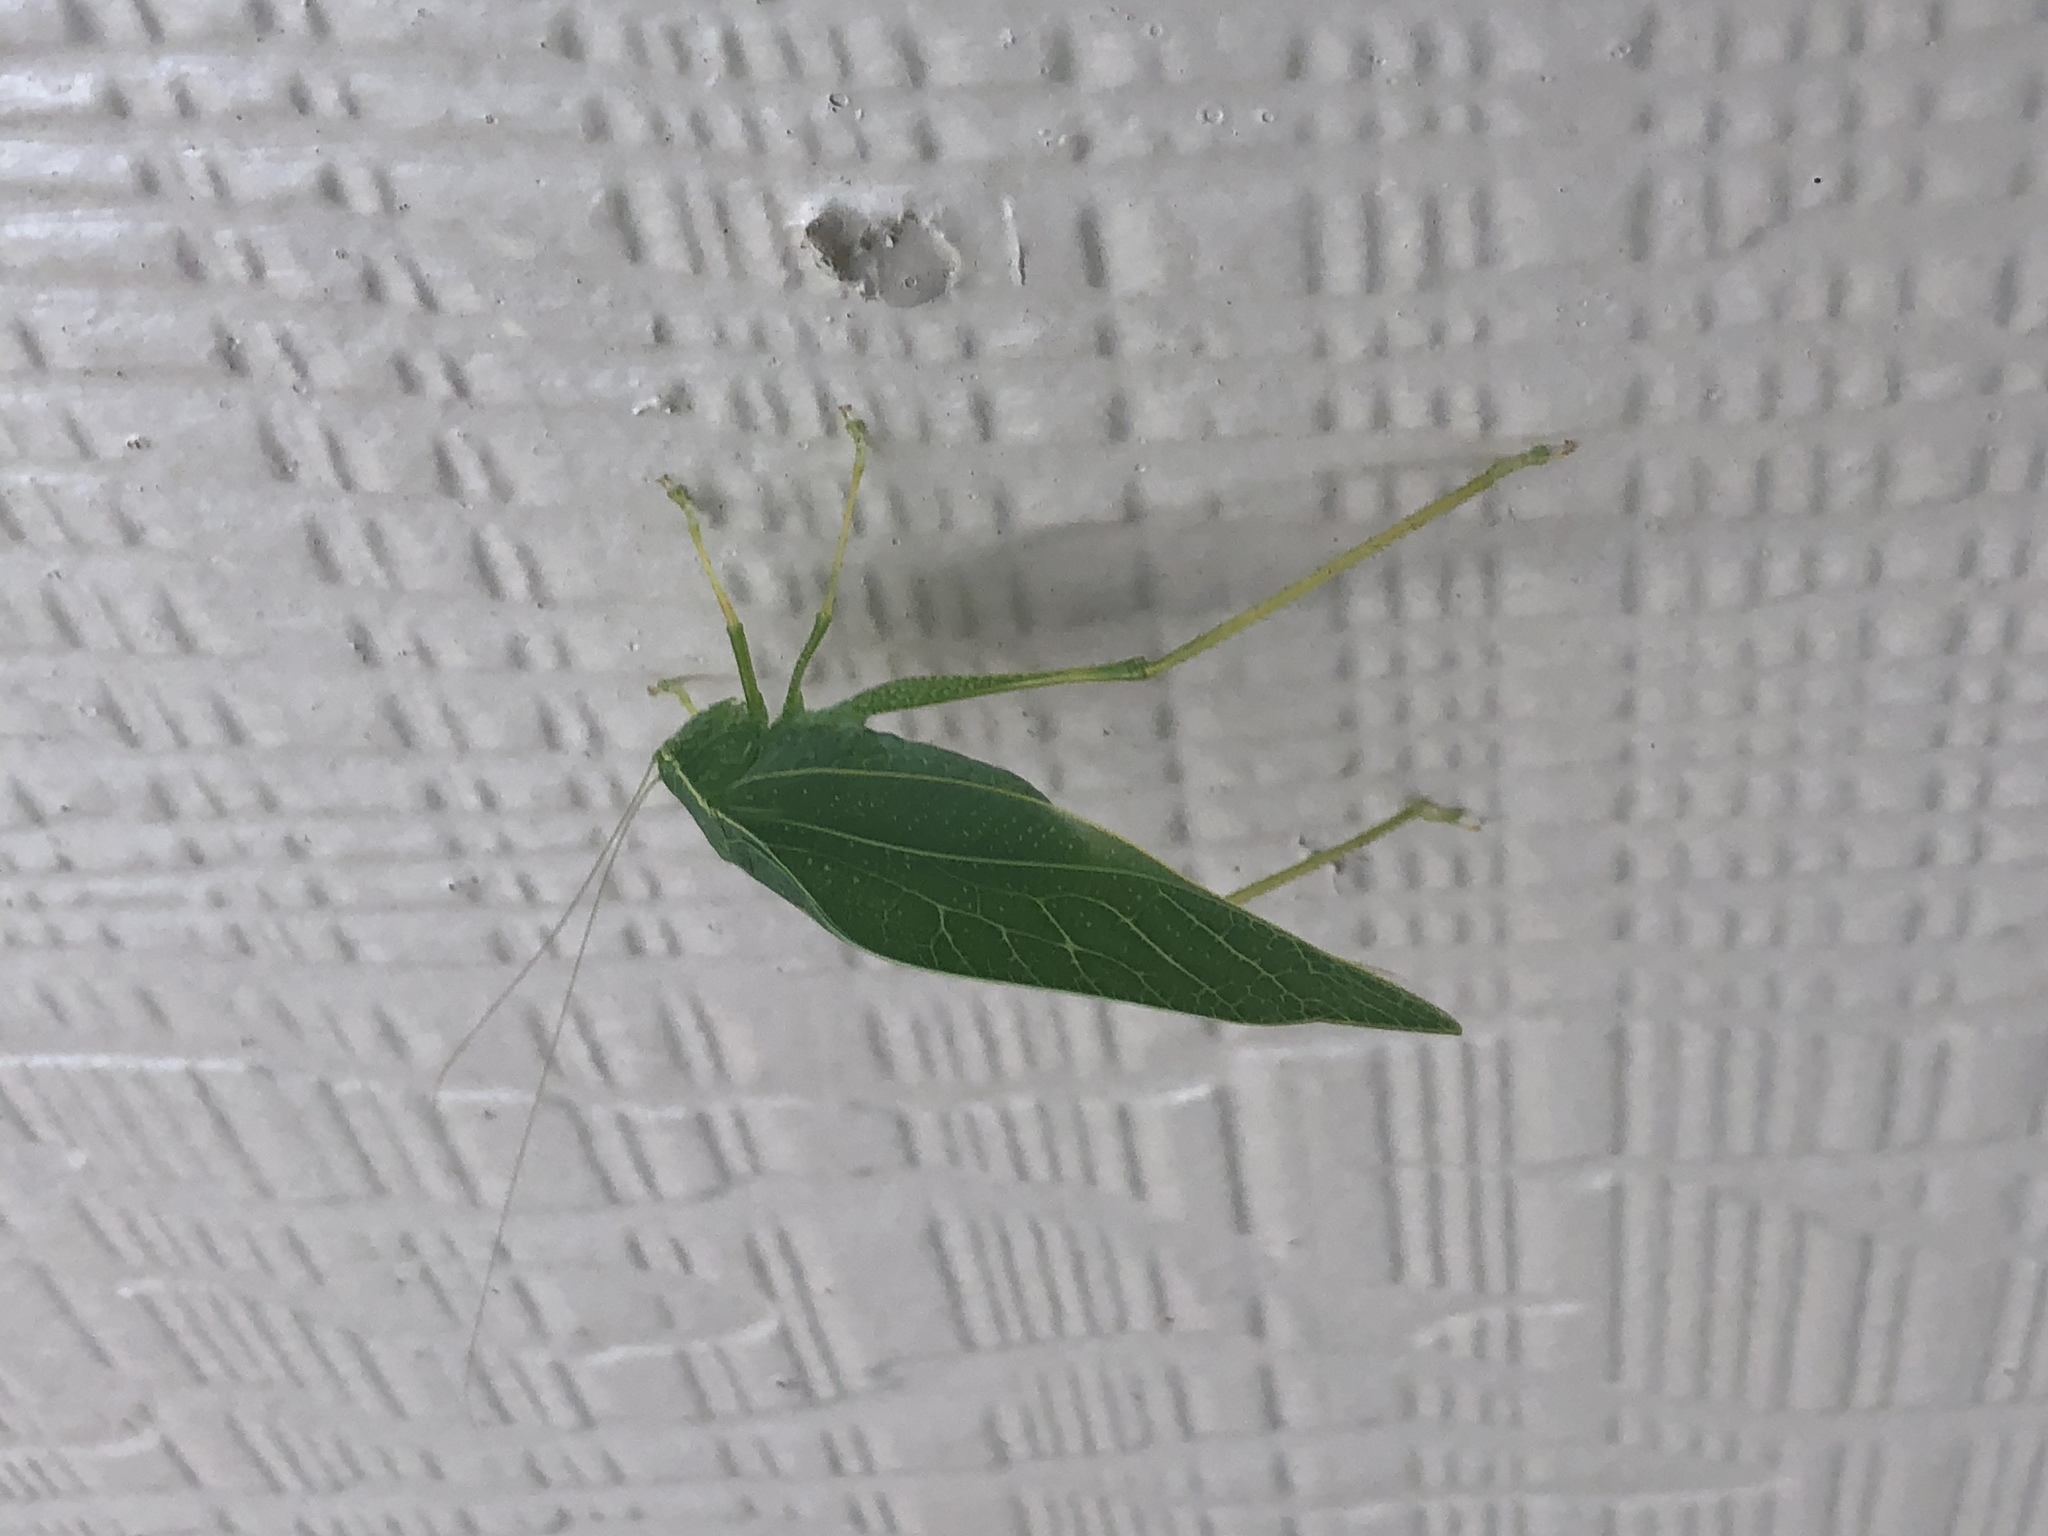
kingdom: Animalia
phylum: Arthropoda
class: Insecta
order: Orthoptera
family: Tettigoniidae
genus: Microcentrum
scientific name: Microcentrum rhombifolium
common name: Broad-winged katydid
